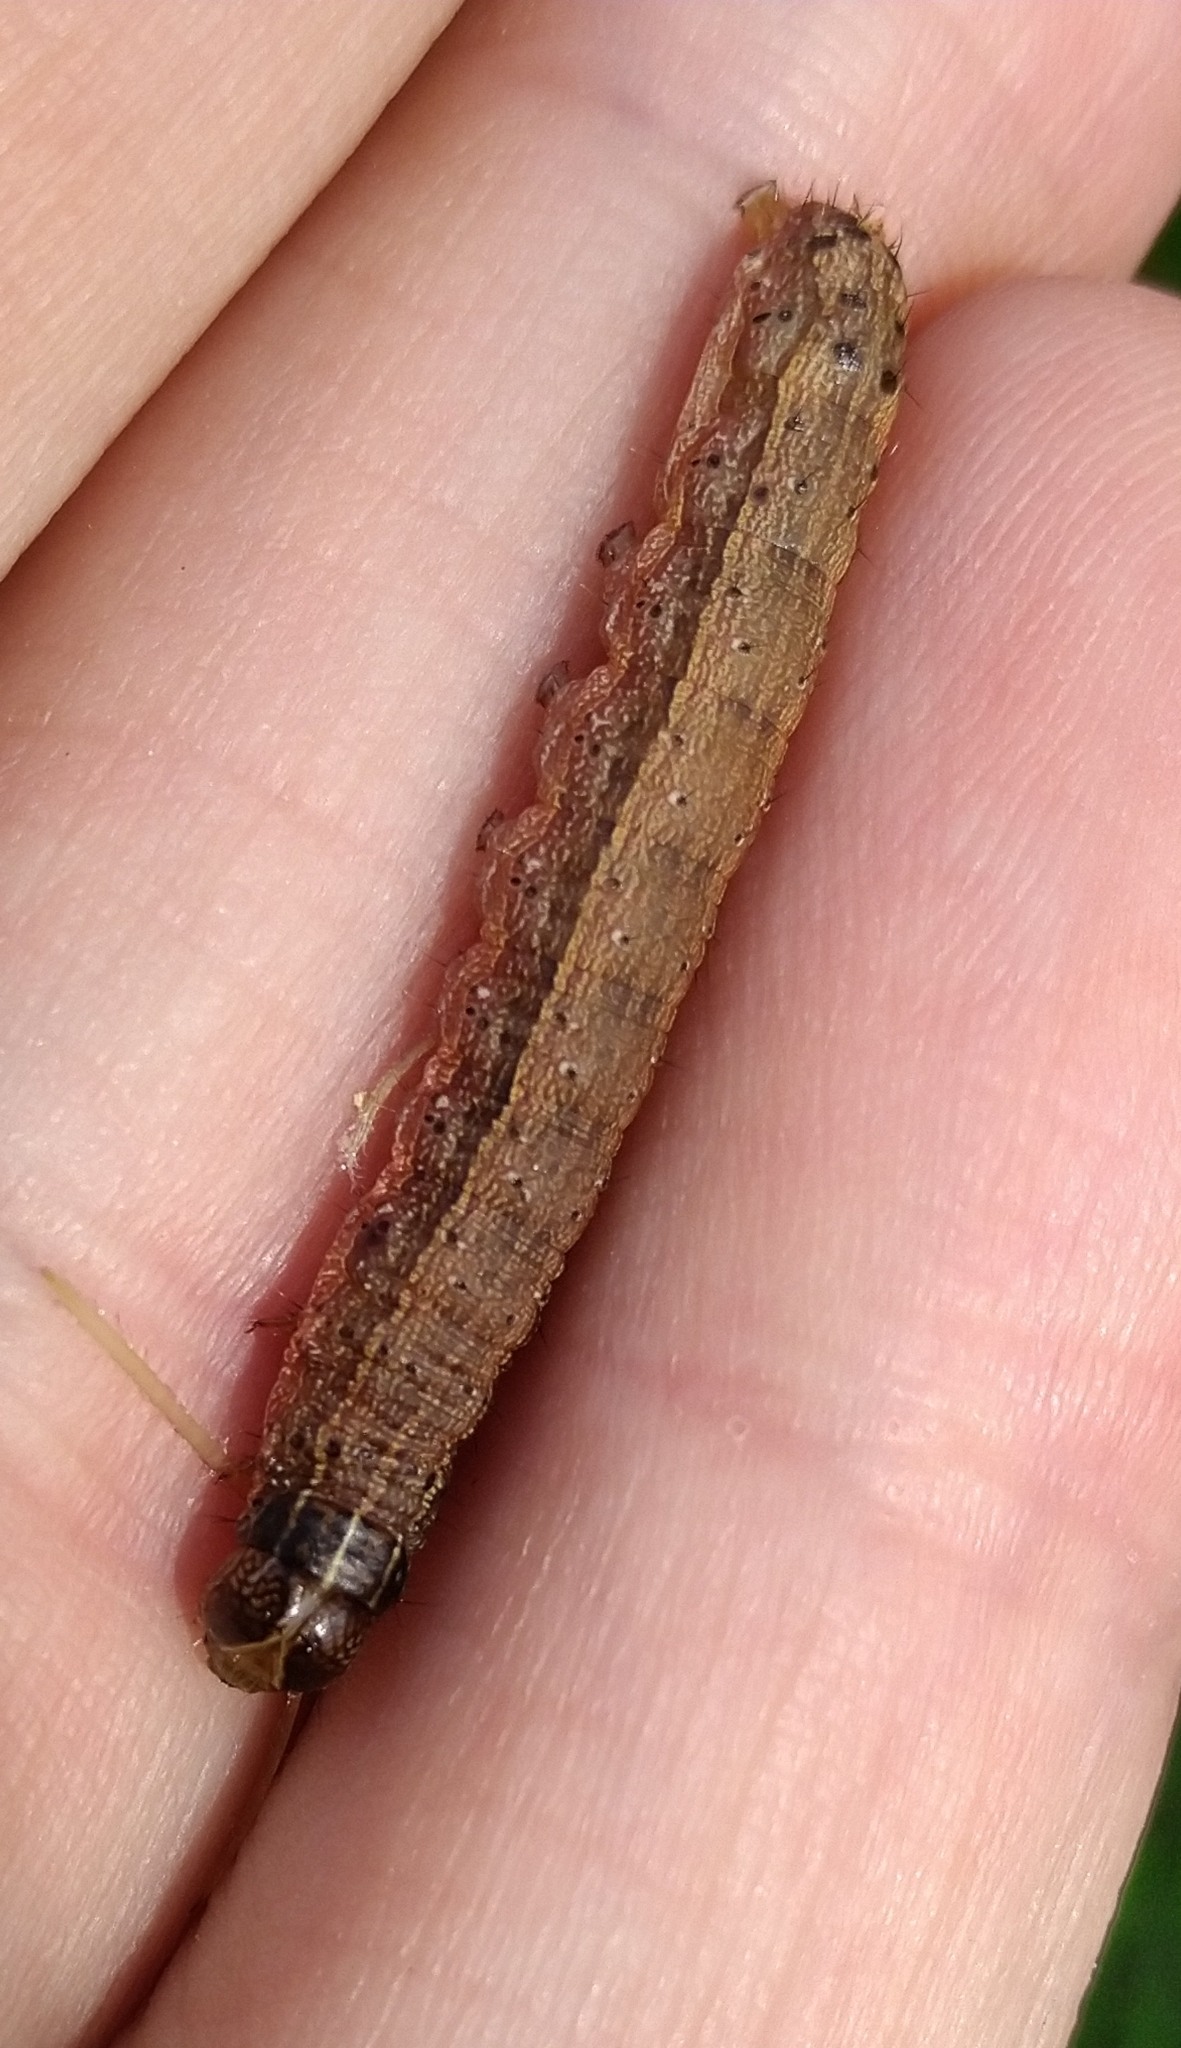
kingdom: Animalia
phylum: Arthropoda
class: Insecta
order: Lepidoptera
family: Noctuidae
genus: Helicoverpa
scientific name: Helicoverpa zea
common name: Bollworm
